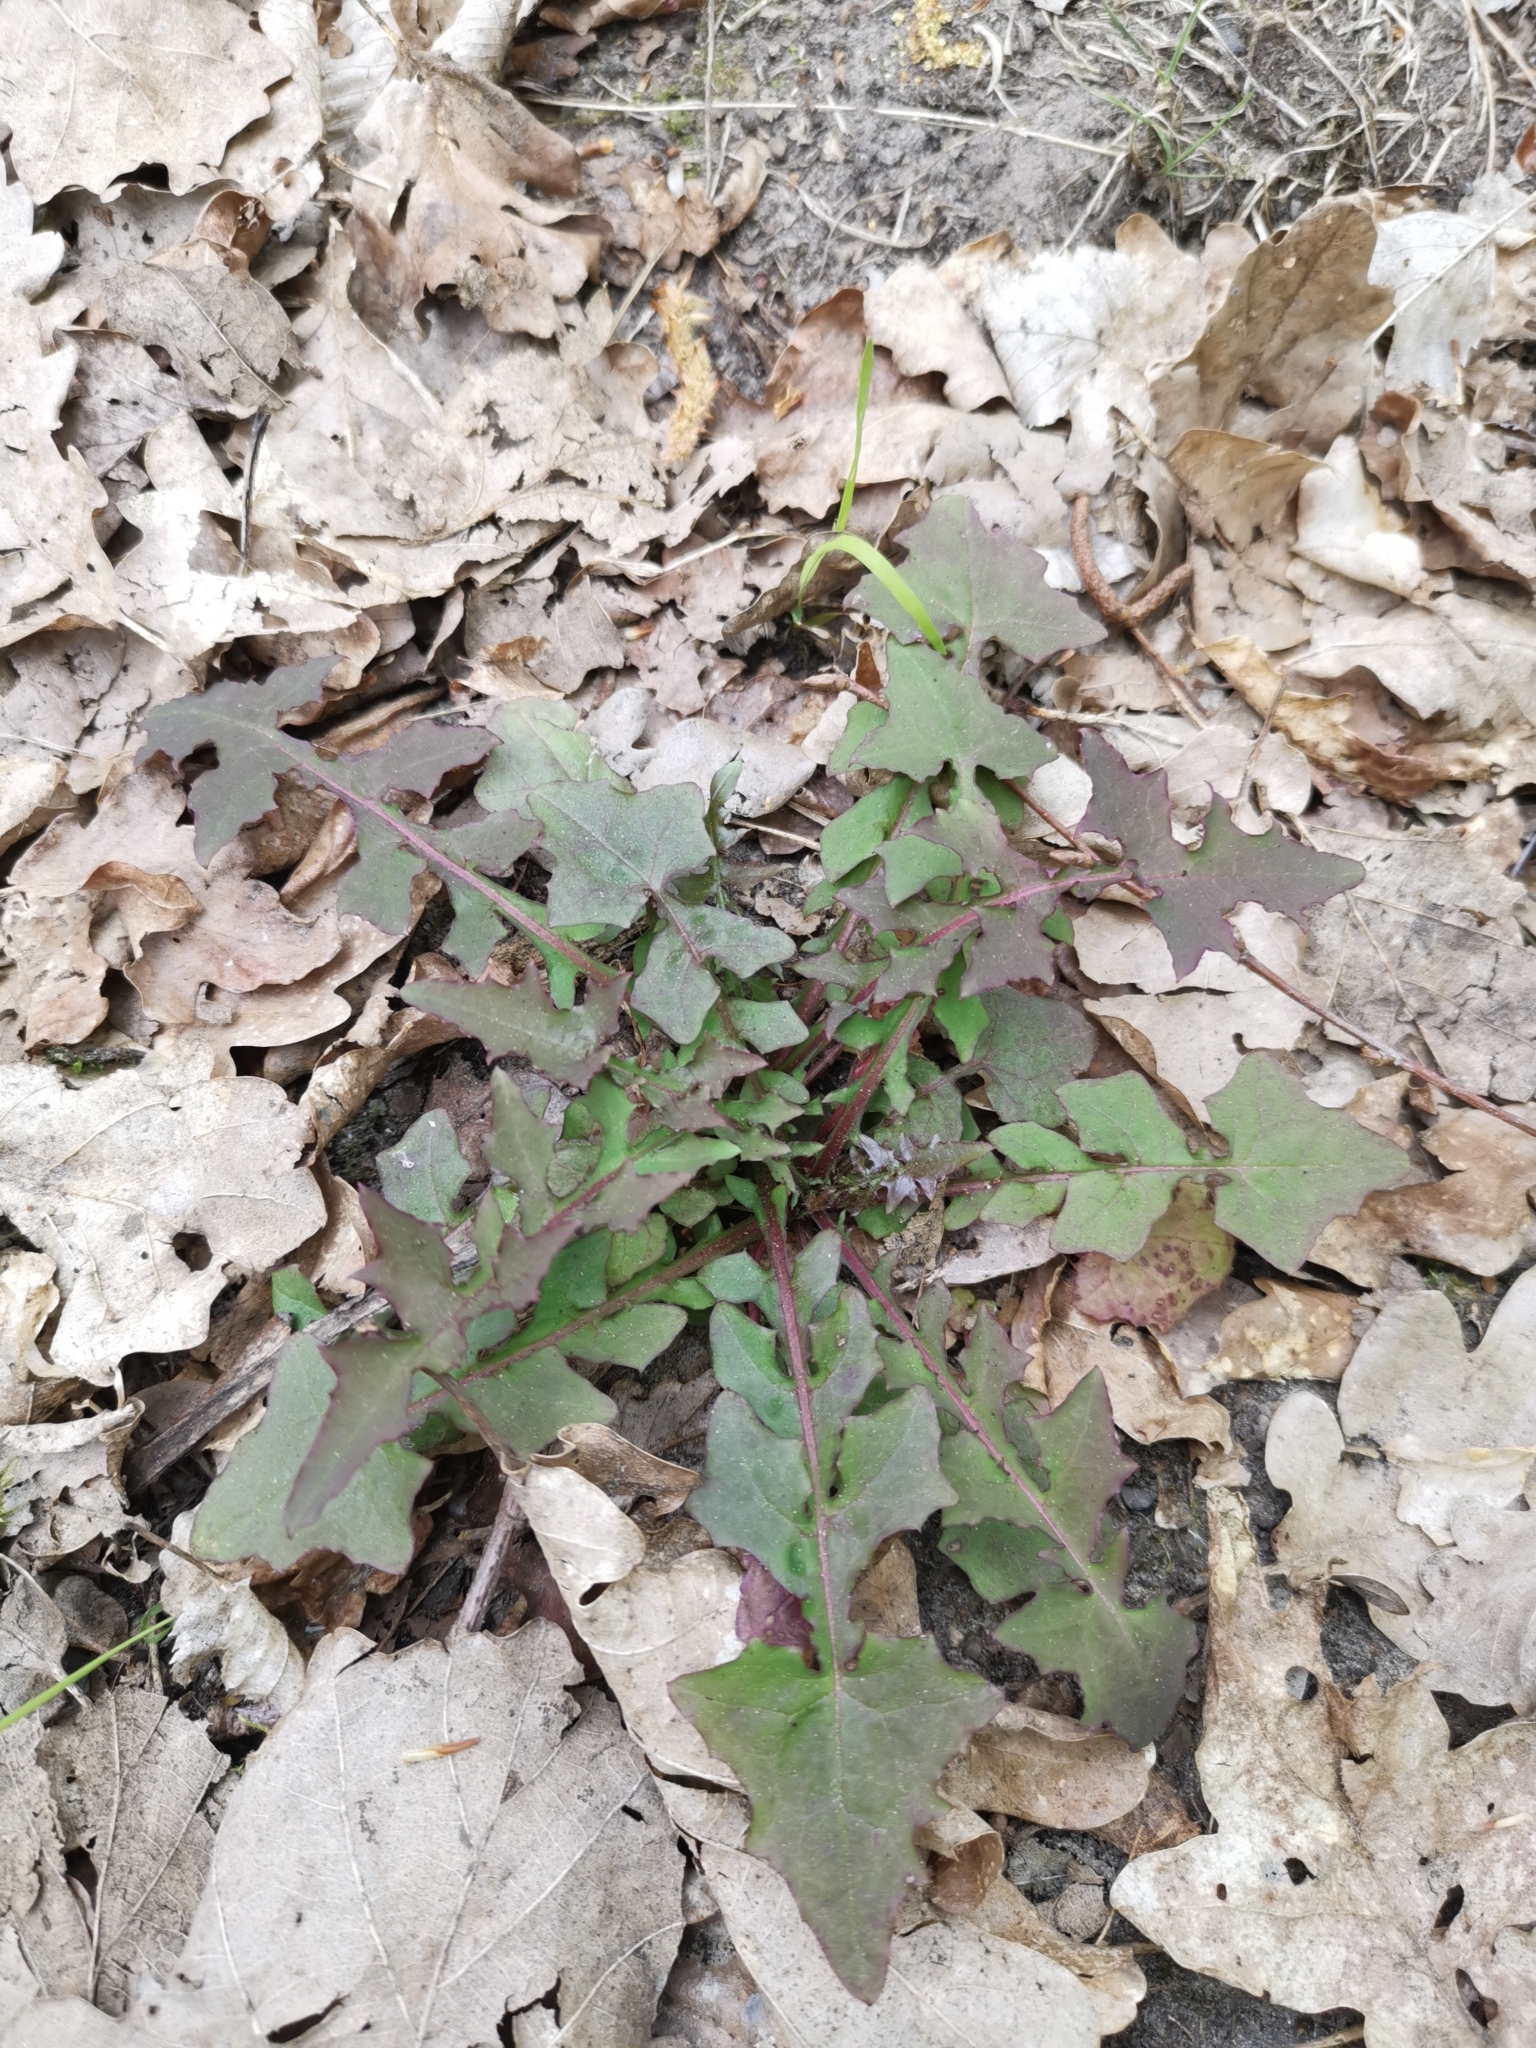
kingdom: Plantae
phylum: Tracheophyta
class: Magnoliopsida
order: Asterales
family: Asteraceae
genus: Mycelis
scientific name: Mycelis muralis
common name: Wall lettuce
